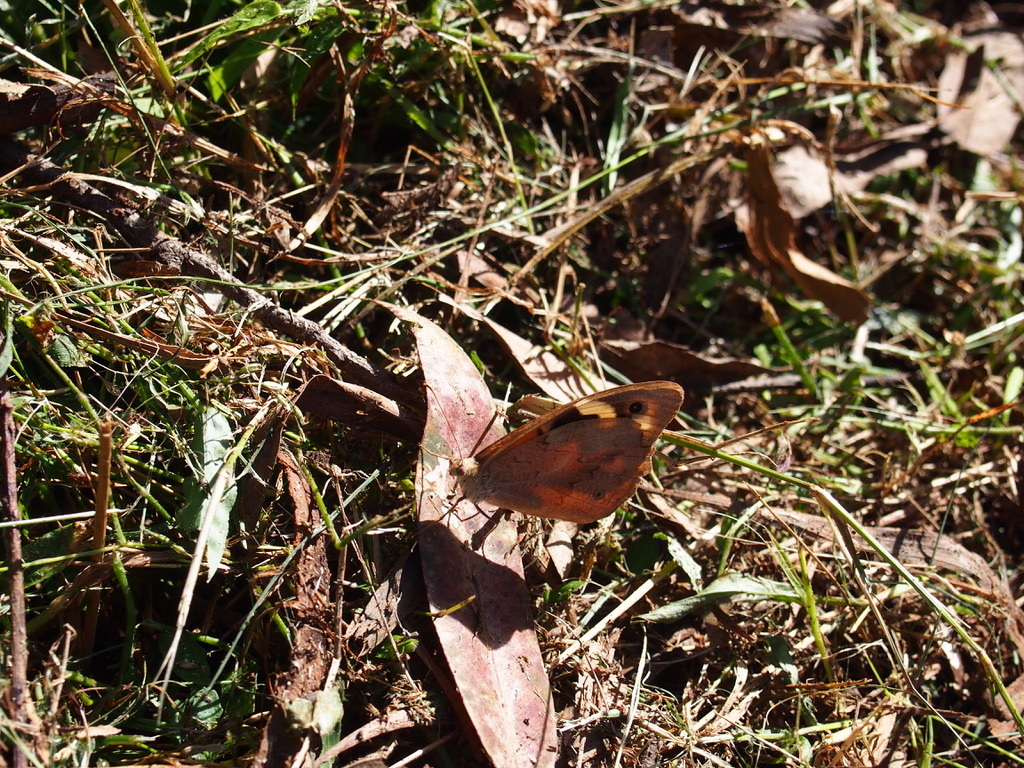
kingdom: Animalia
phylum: Arthropoda
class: Insecta
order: Lepidoptera
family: Nymphalidae
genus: Heteronympha
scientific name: Heteronympha merope
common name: Common brown
